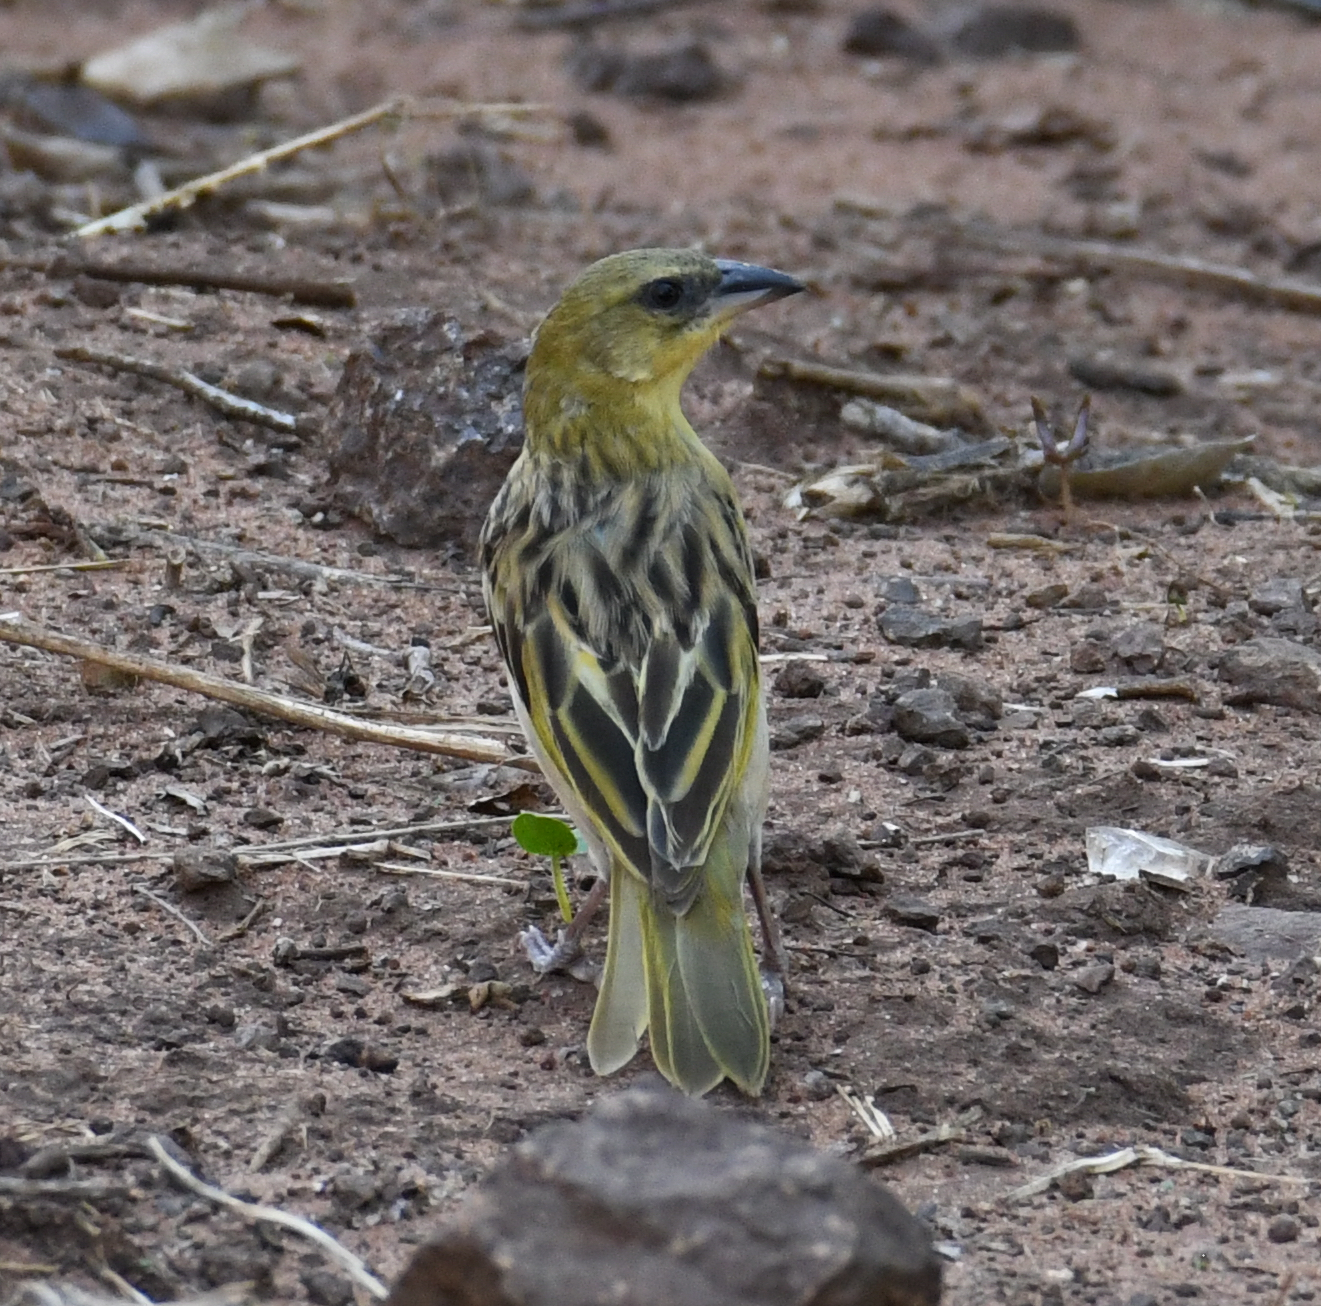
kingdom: Animalia
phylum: Chordata
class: Aves
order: Passeriformes
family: Ploceidae
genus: Ploceus
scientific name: Ploceus xanthopterus
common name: Southern brown-throated weaver
